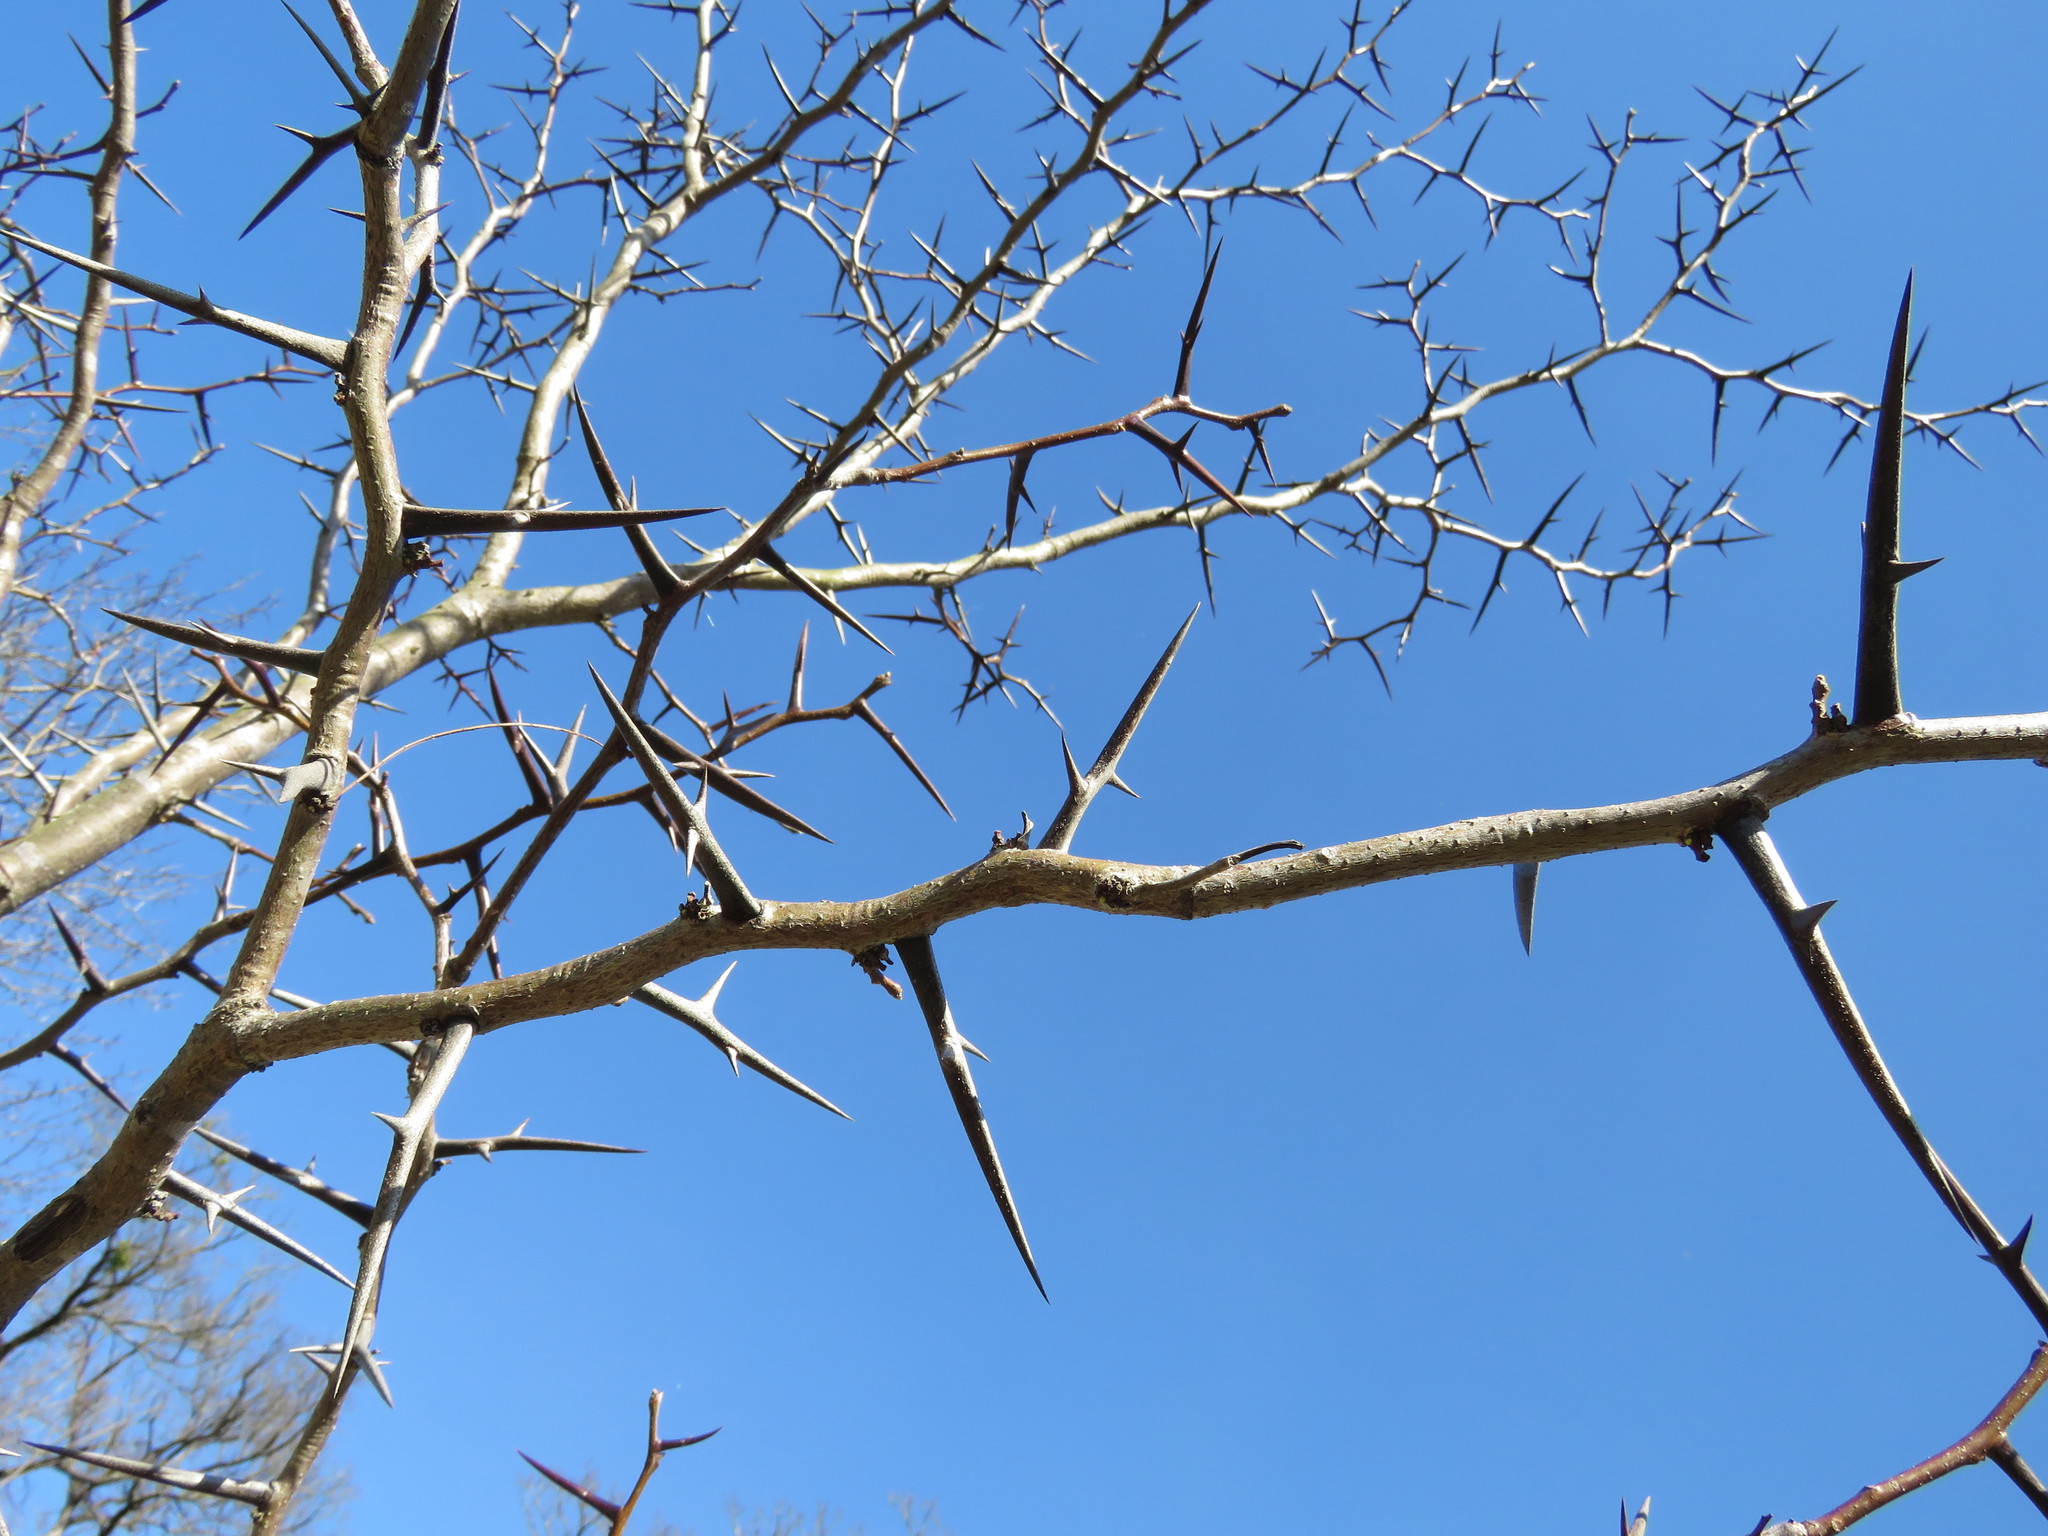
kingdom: Plantae
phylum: Tracheophyta
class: Magnoliopsida
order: Fabales
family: Fabaceae
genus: Gleditsia
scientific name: Gleditsia triacanthos
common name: Common honeylocust
